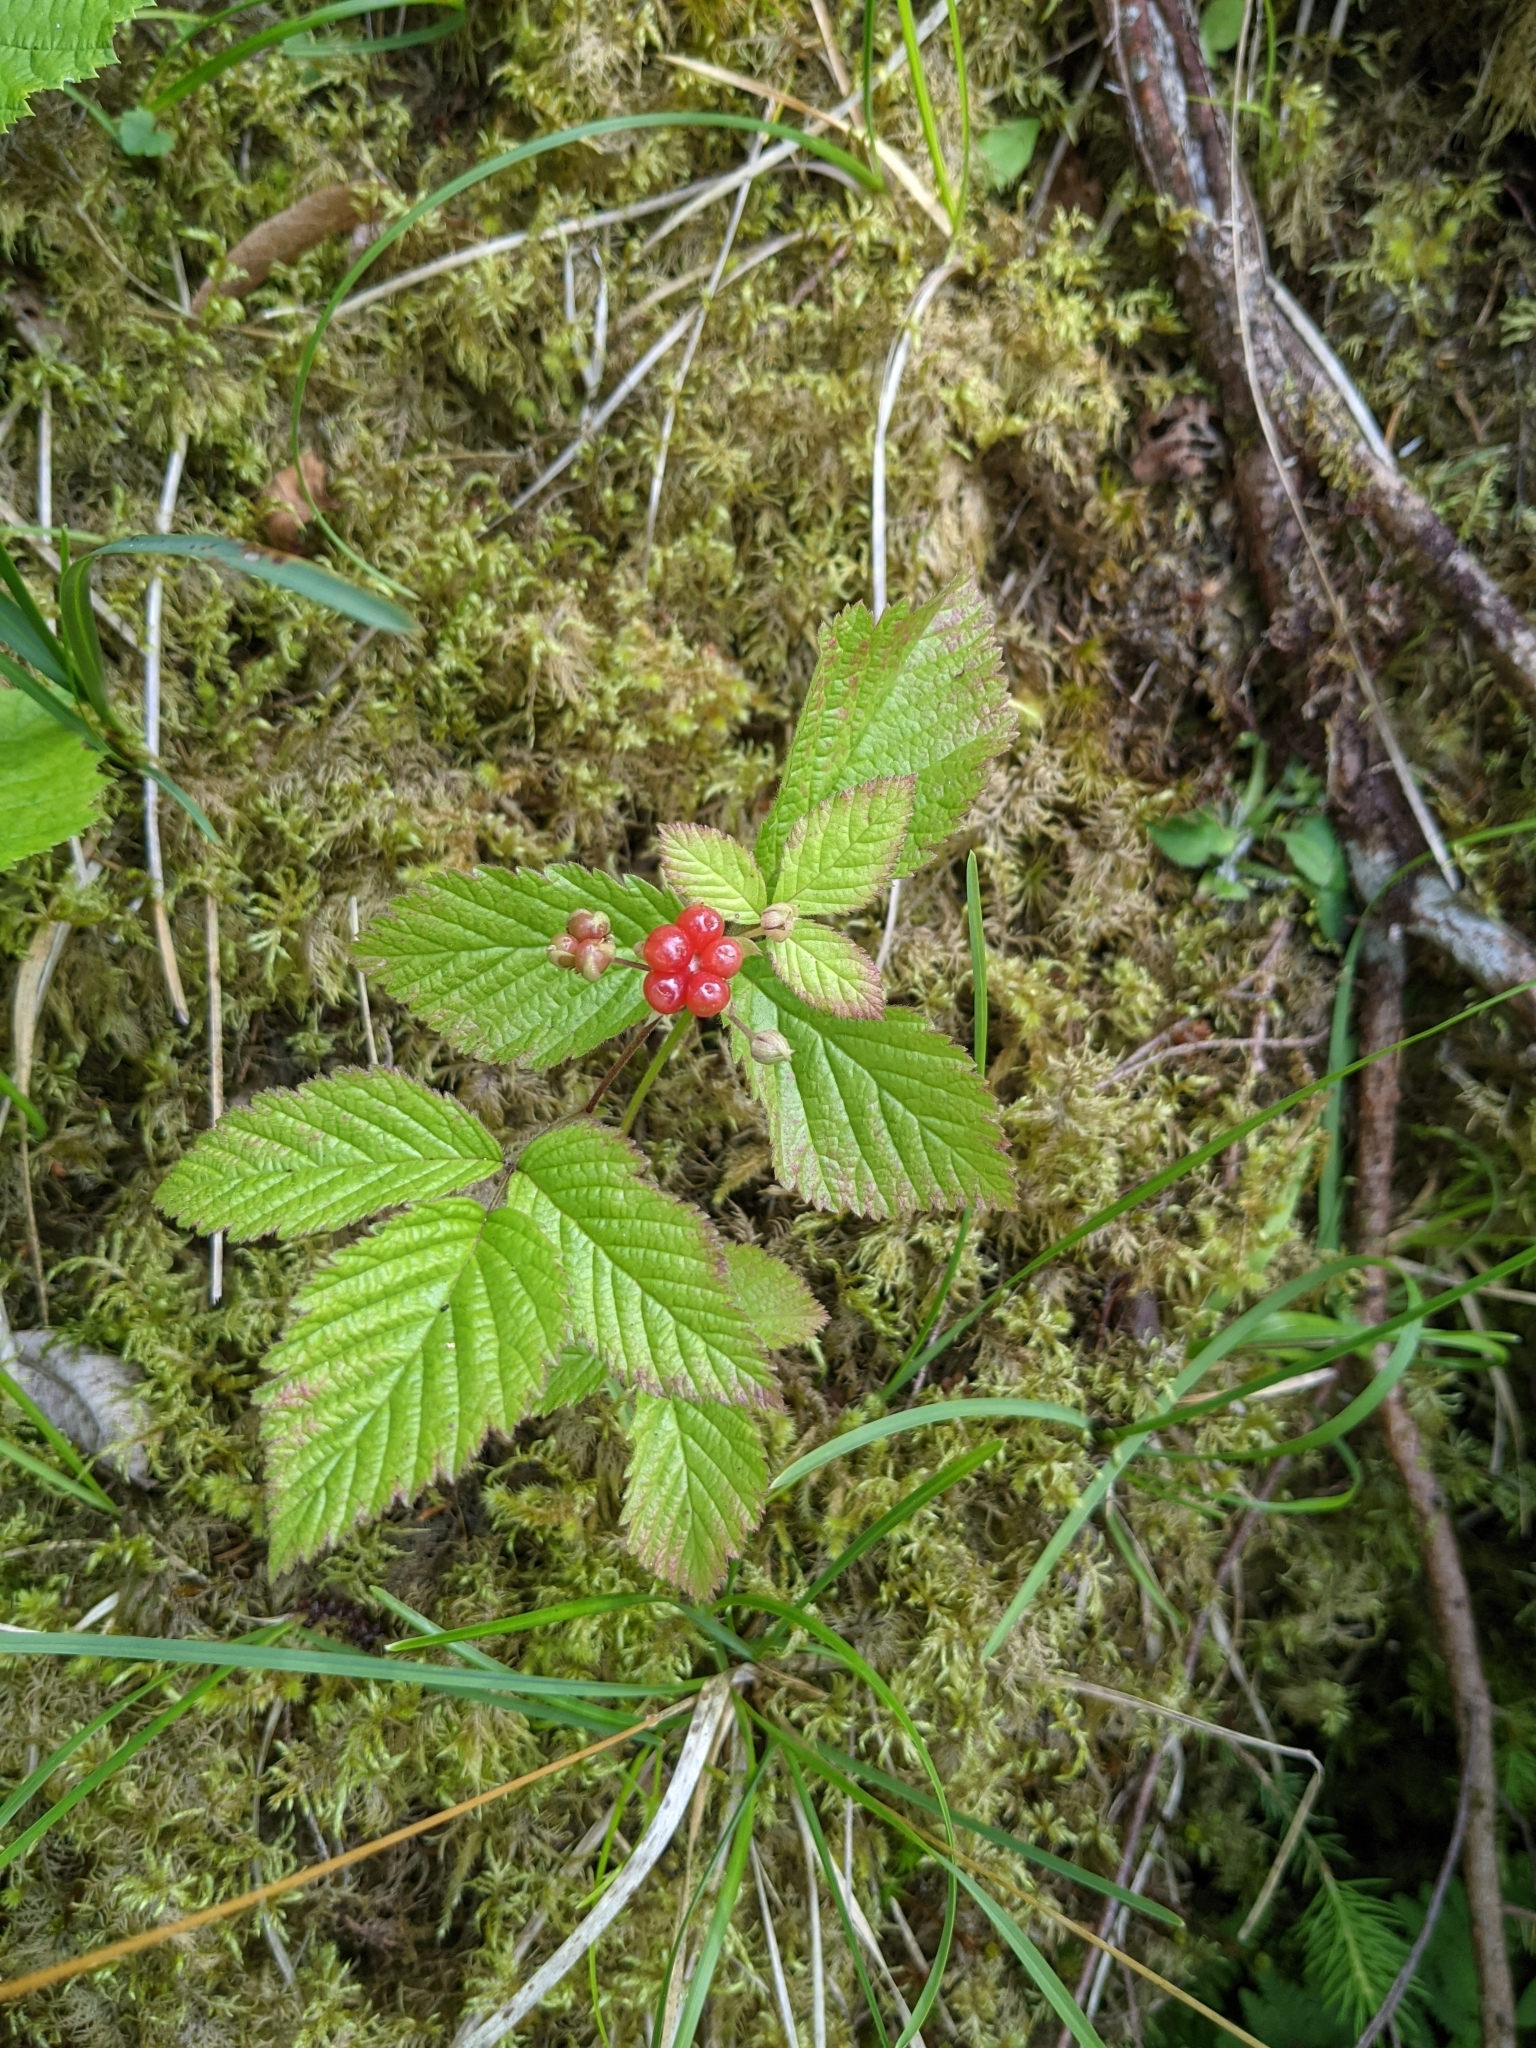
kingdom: Plantae
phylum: Tracheophyta
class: Magnoliopsida
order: Rosales
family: Rosaceae
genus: Rubus
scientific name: Rubus saxatilis
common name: Stone bramble
